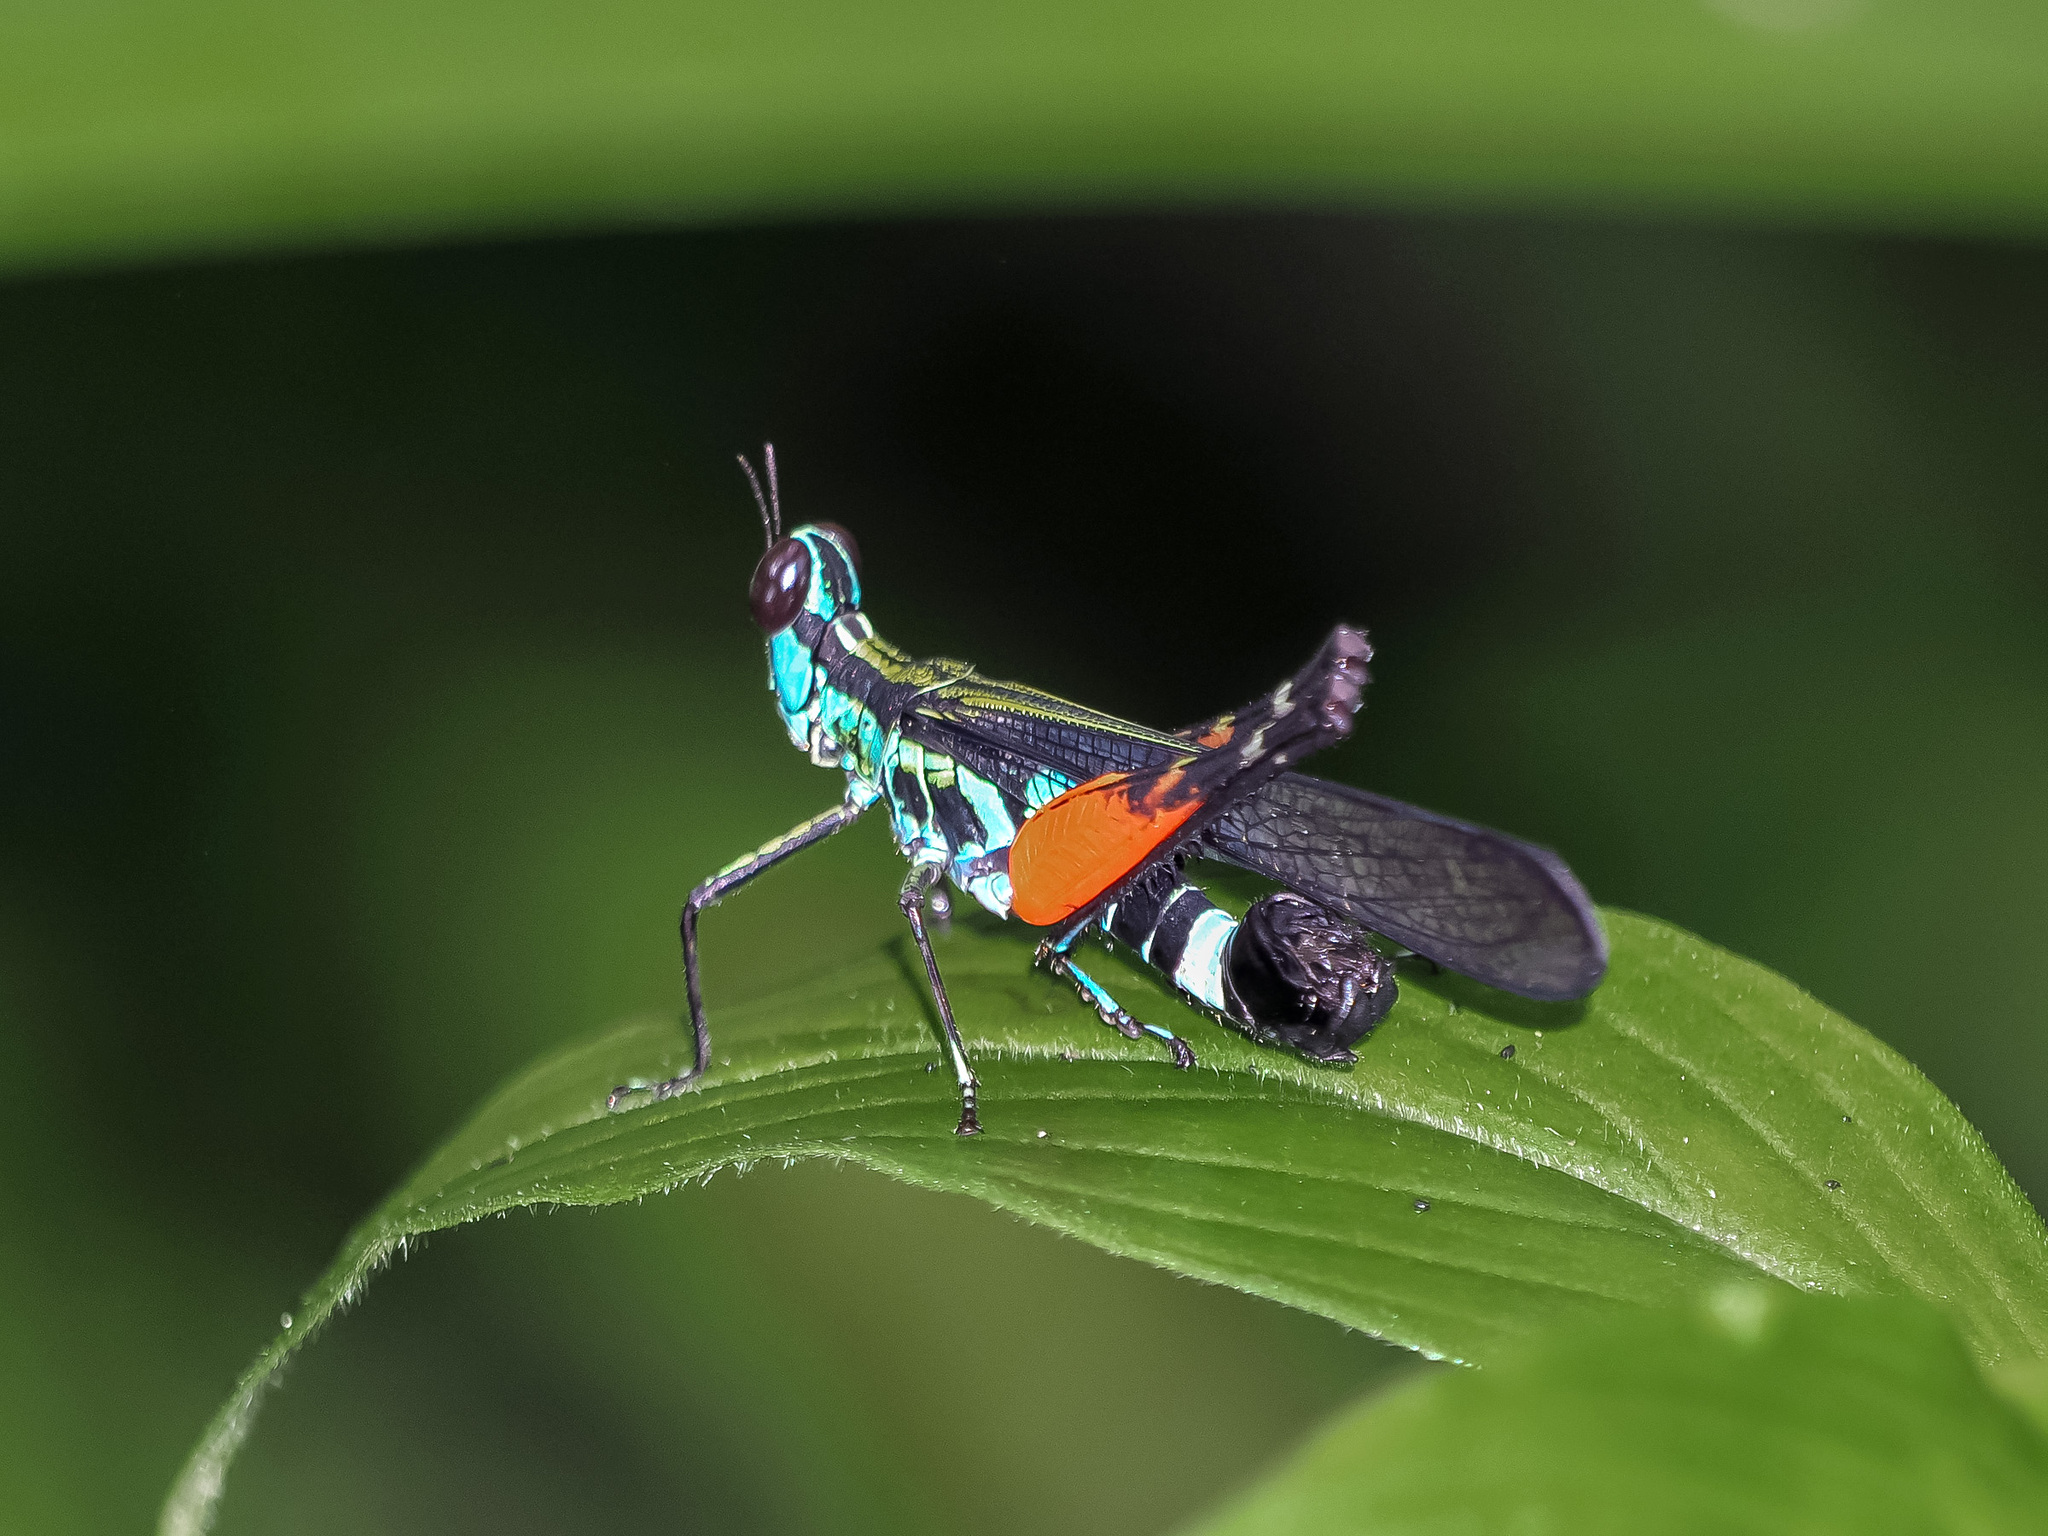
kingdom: Animalia
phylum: Arthropoda
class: Insecta
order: Orthoptera
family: Chorotypidae
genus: Erucius
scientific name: Erucius dimidiatipes
